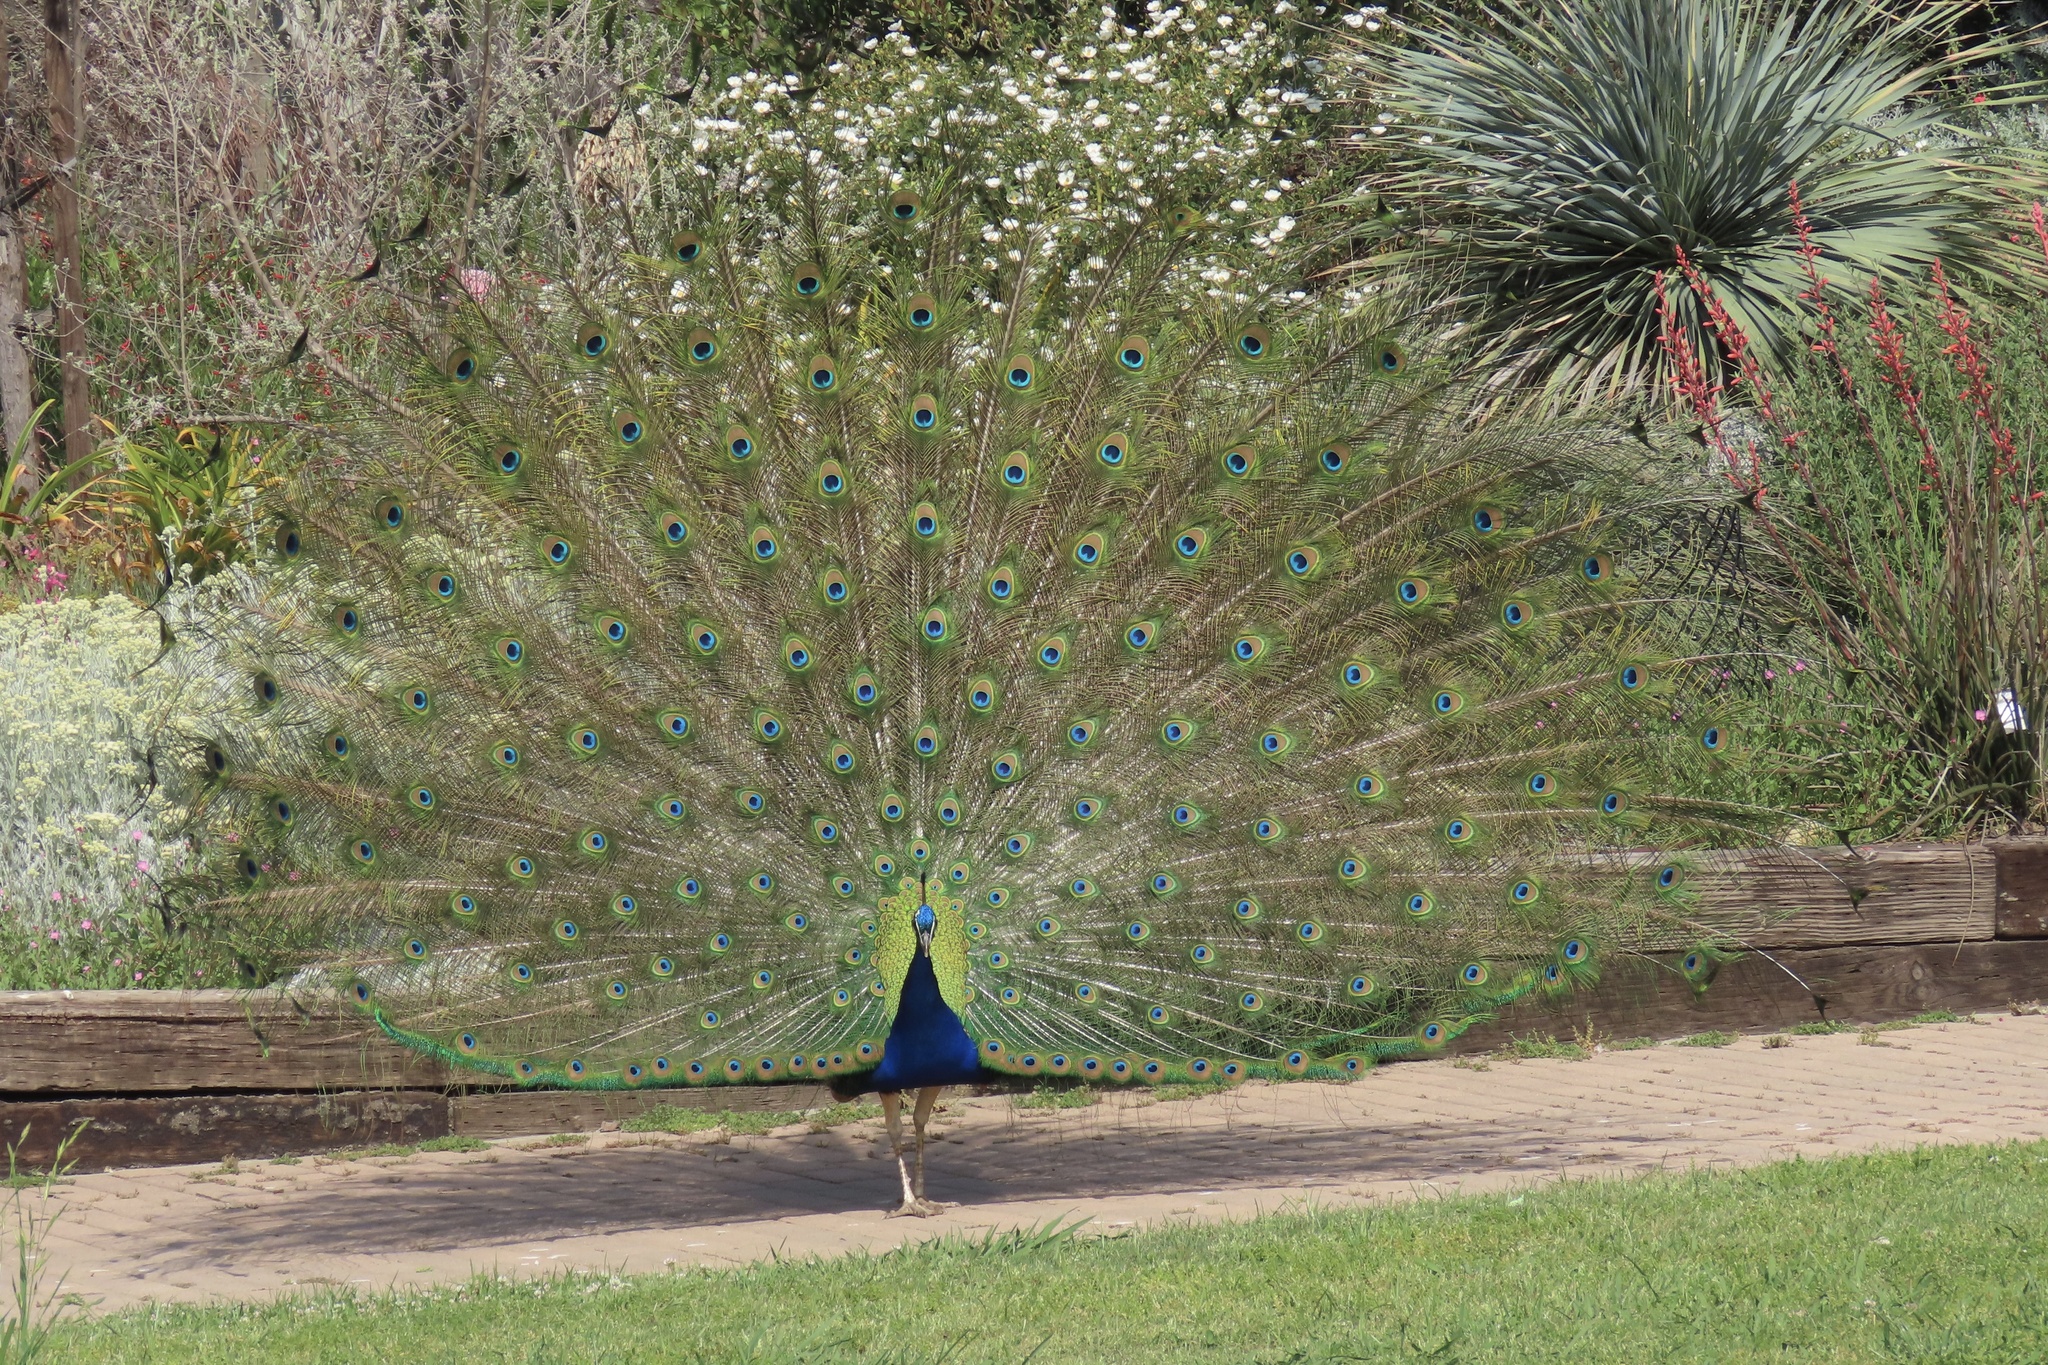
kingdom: Animalia
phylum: Chordata
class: Aves
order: Galliformes
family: Phasianidae
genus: Pavo
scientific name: Pavo cristatus
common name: Indian peafowl
